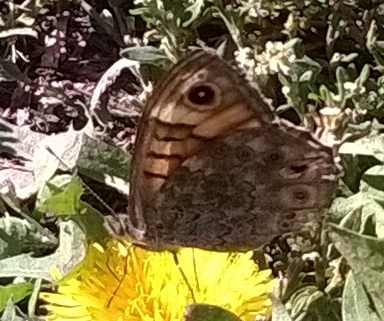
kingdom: Animalia
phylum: Arthropoda
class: Insecta
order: Lepidoptera
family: Nymphalidae
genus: Pararge
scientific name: Pararge Lasiommata megera
